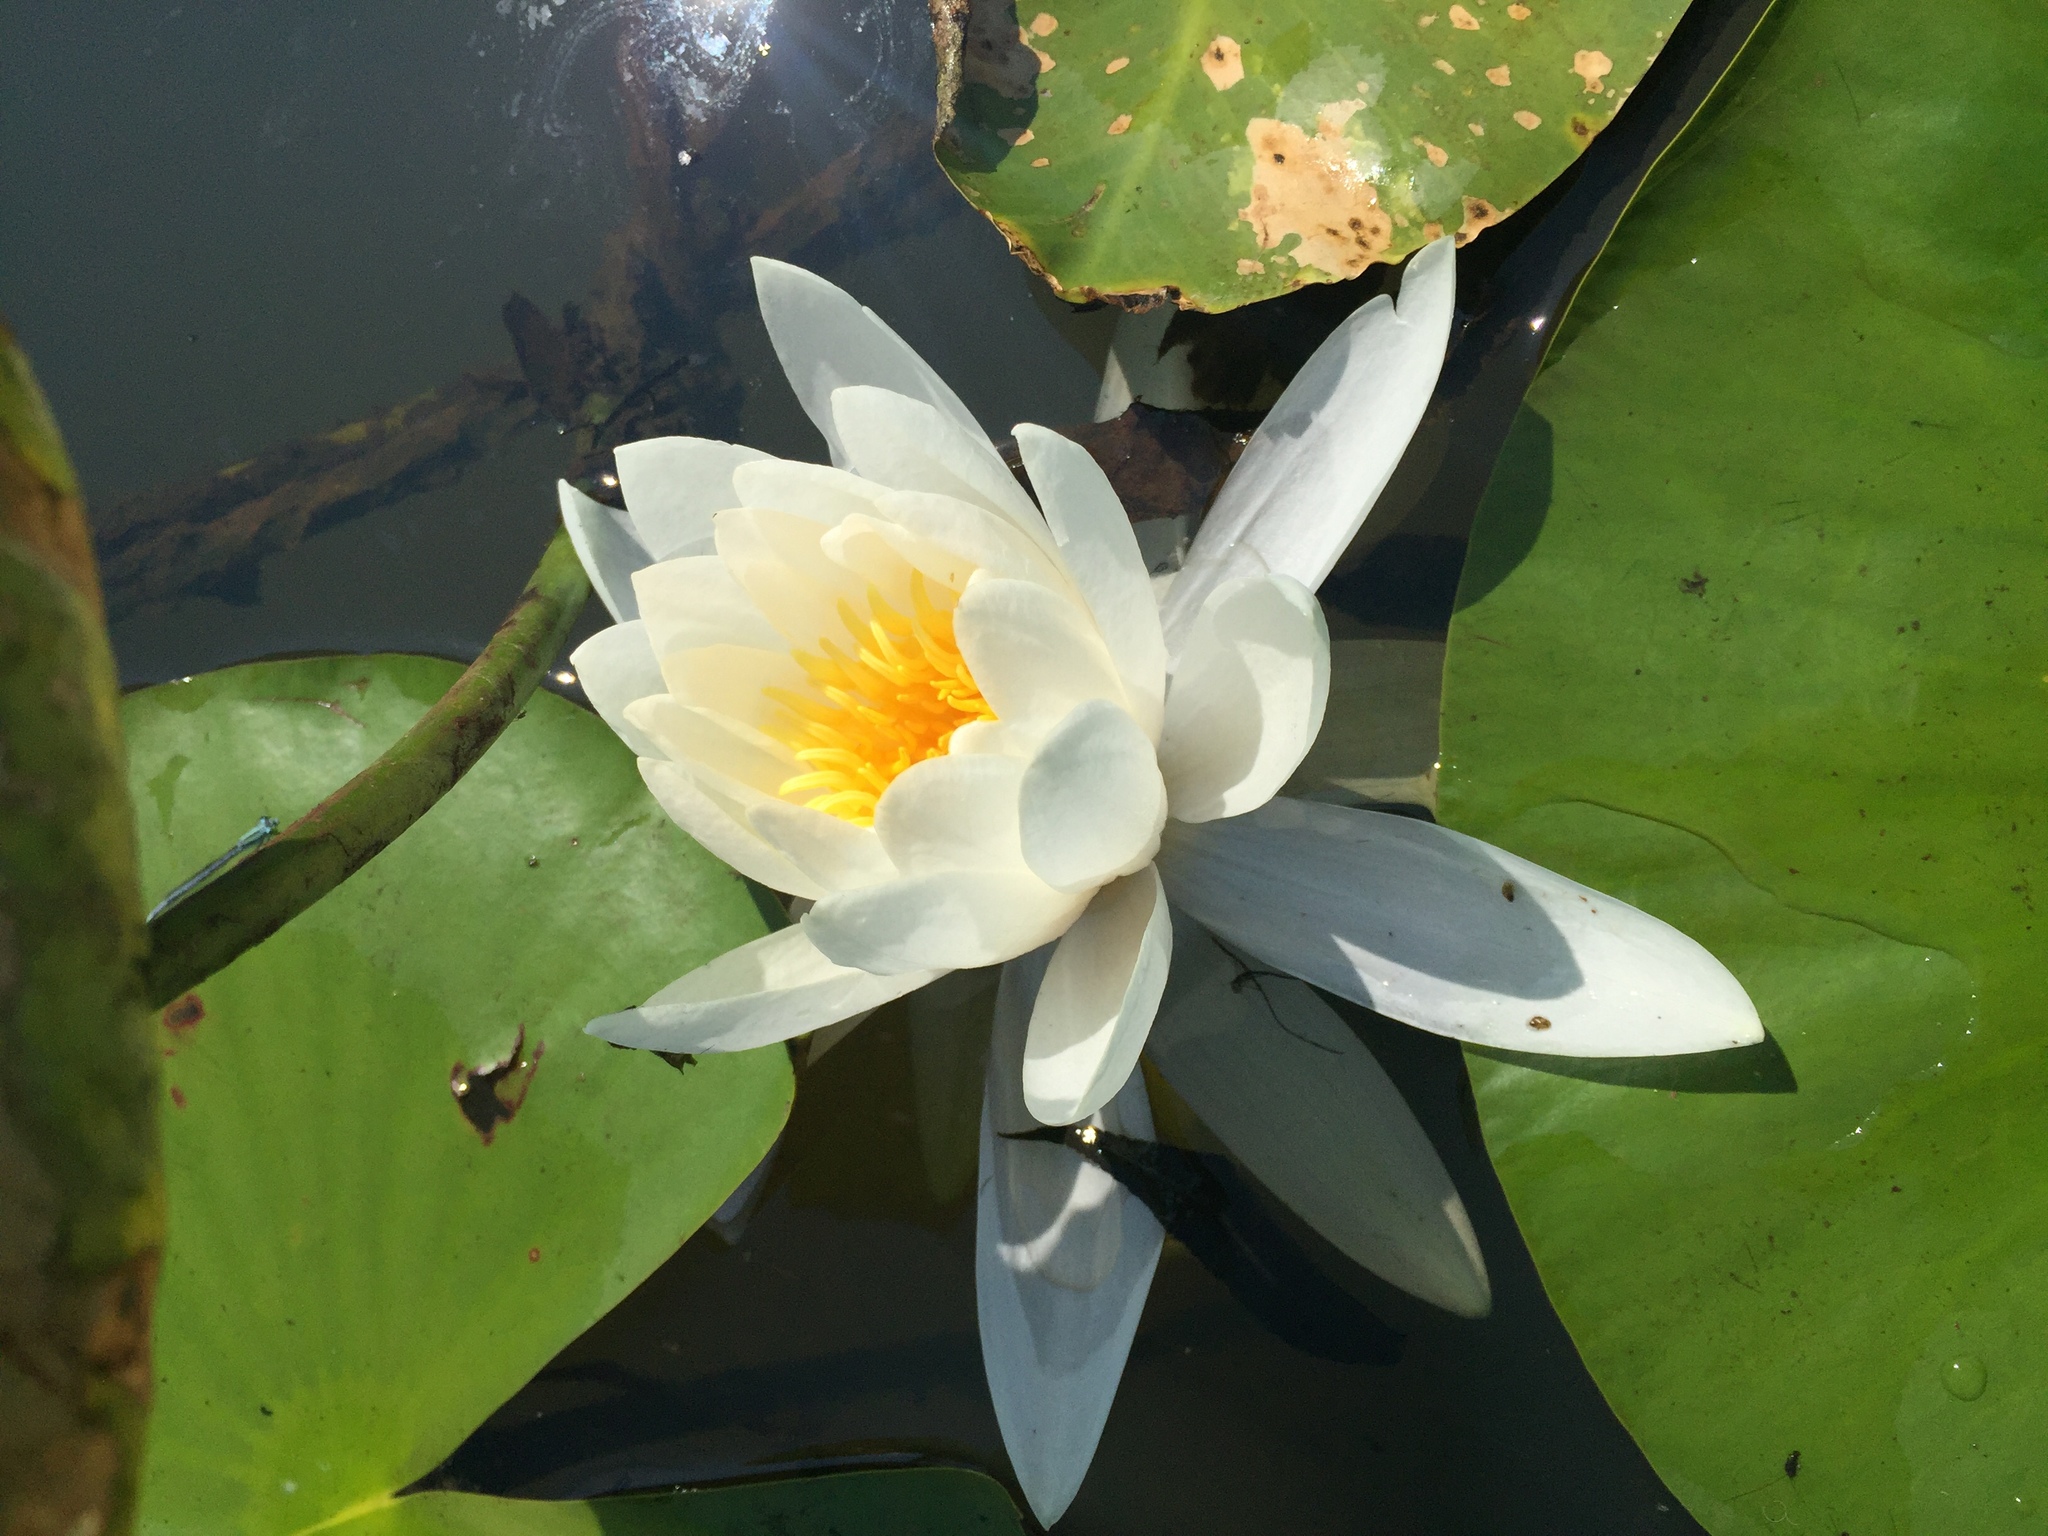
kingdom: Plantae
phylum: Tracheophyta
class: Magnoliopsida
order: Nymphaeales
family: Nymphaeaceae
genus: Nymphaea
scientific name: Nymphaea odorata
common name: Fragrant water-lily
